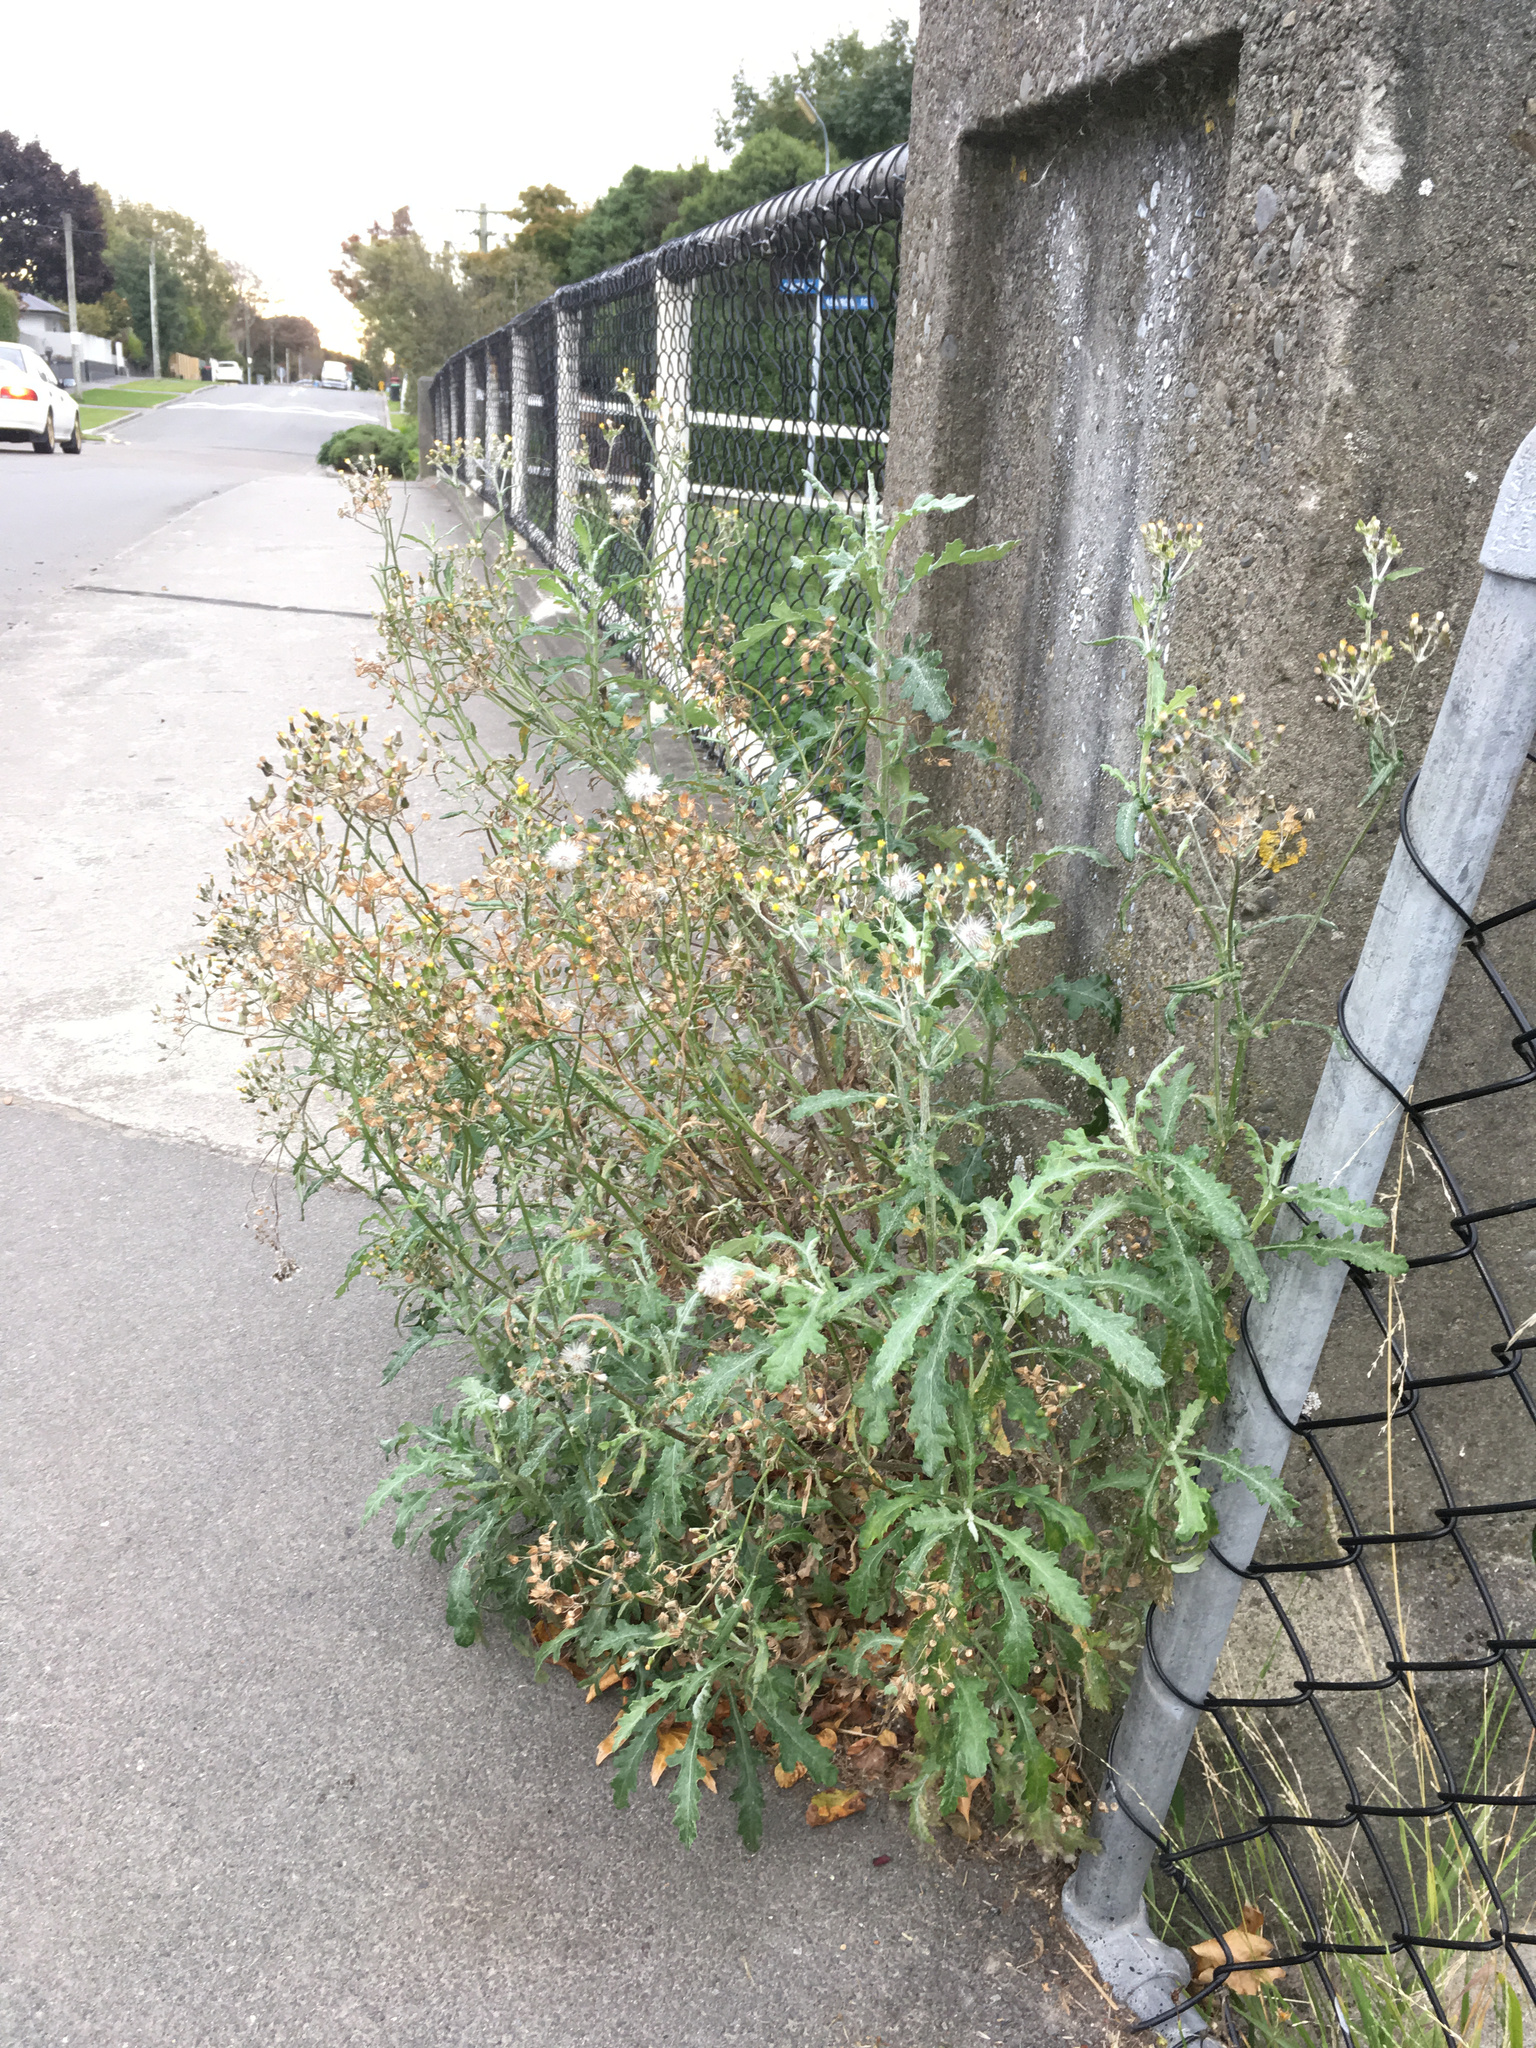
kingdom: Plantae
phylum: Tracheophyta
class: Magnoliopsida
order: Asterales
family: Asteraceae
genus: Senecio
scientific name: Senecio glomeratus
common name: Cutleaf burnweed
